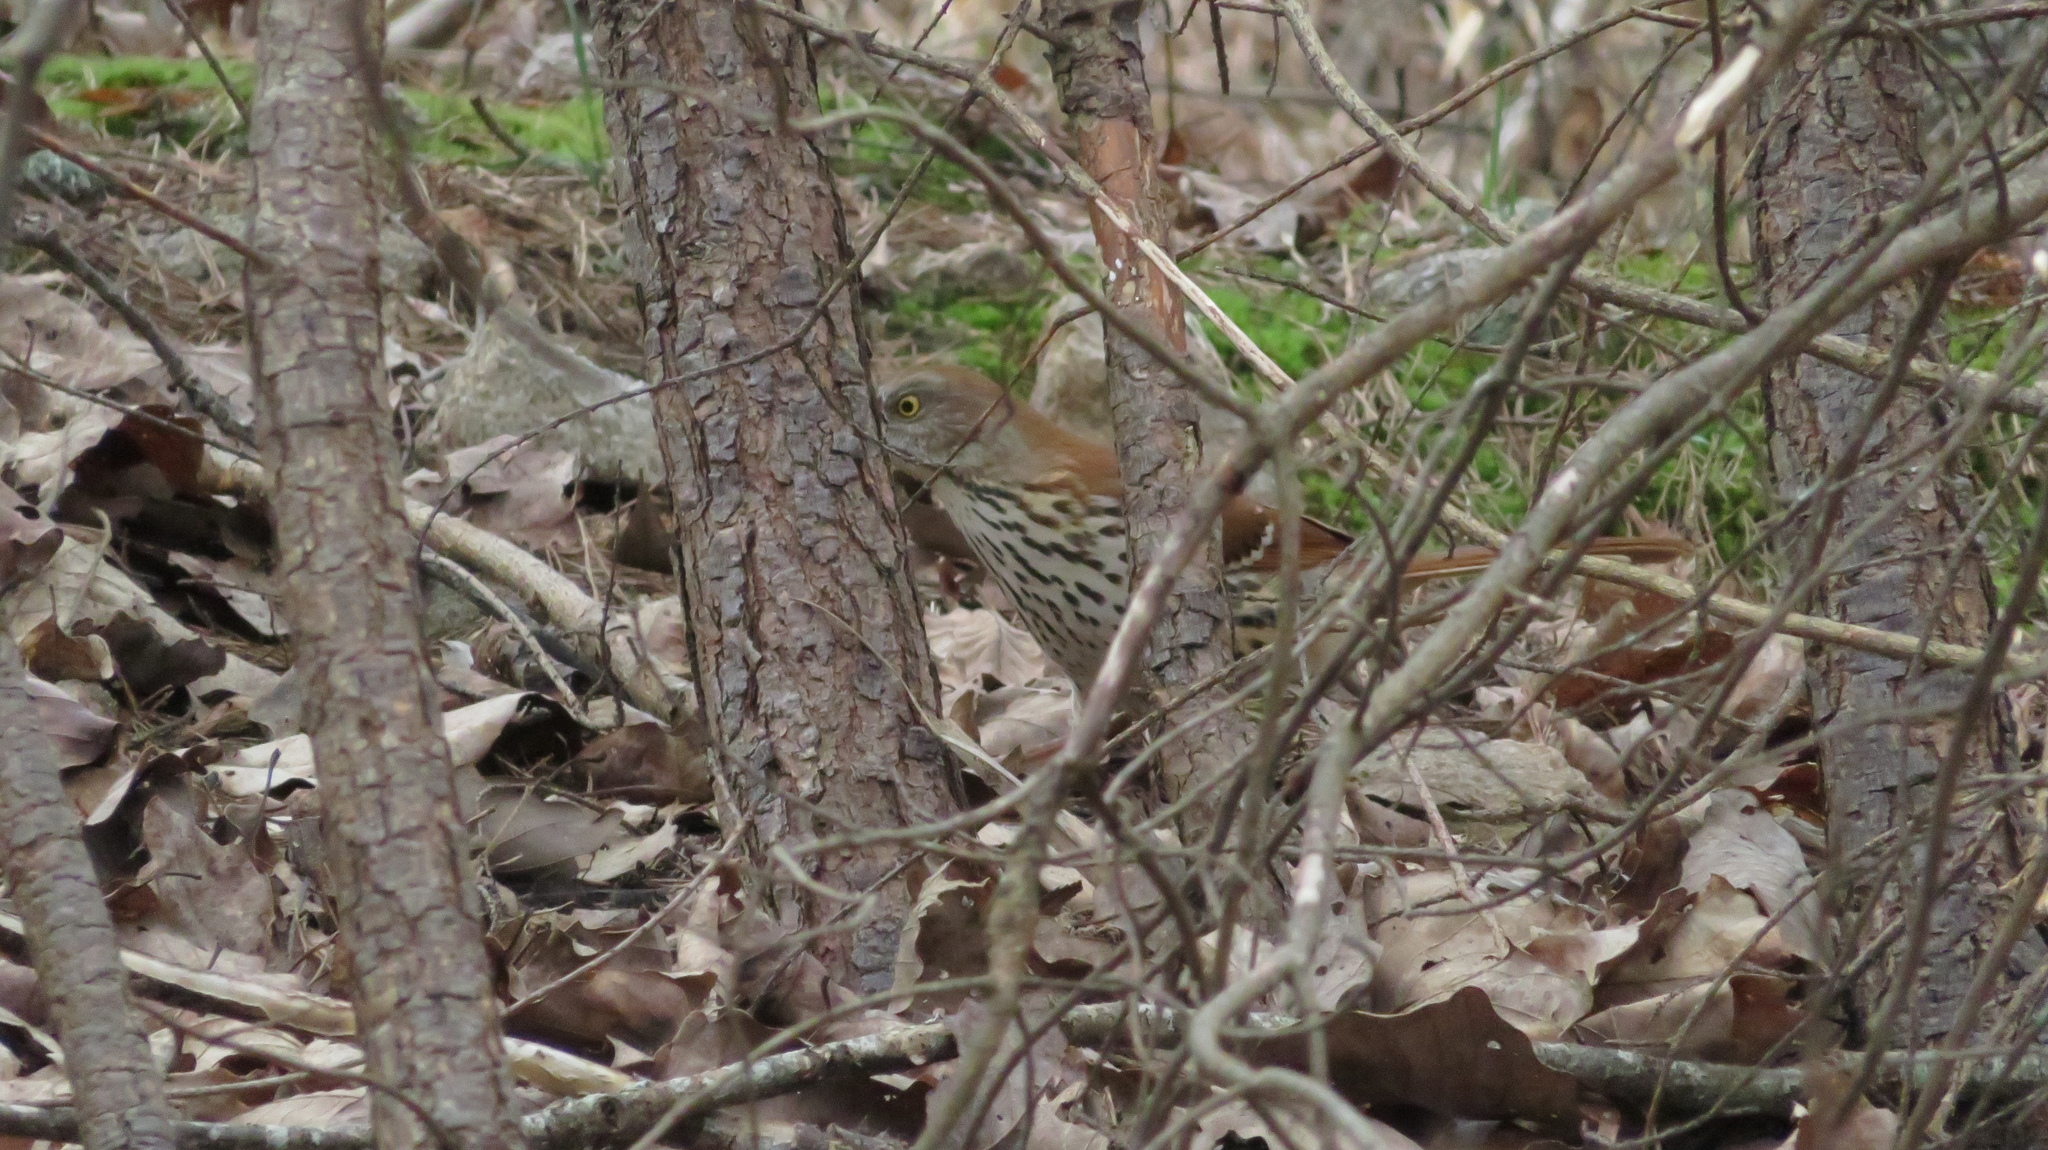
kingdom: Animalia
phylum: Chordata
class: Aves
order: Passeriformes
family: Mimidae
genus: Toxostoma
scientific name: Toxostoma rufum
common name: Brown thrasher
